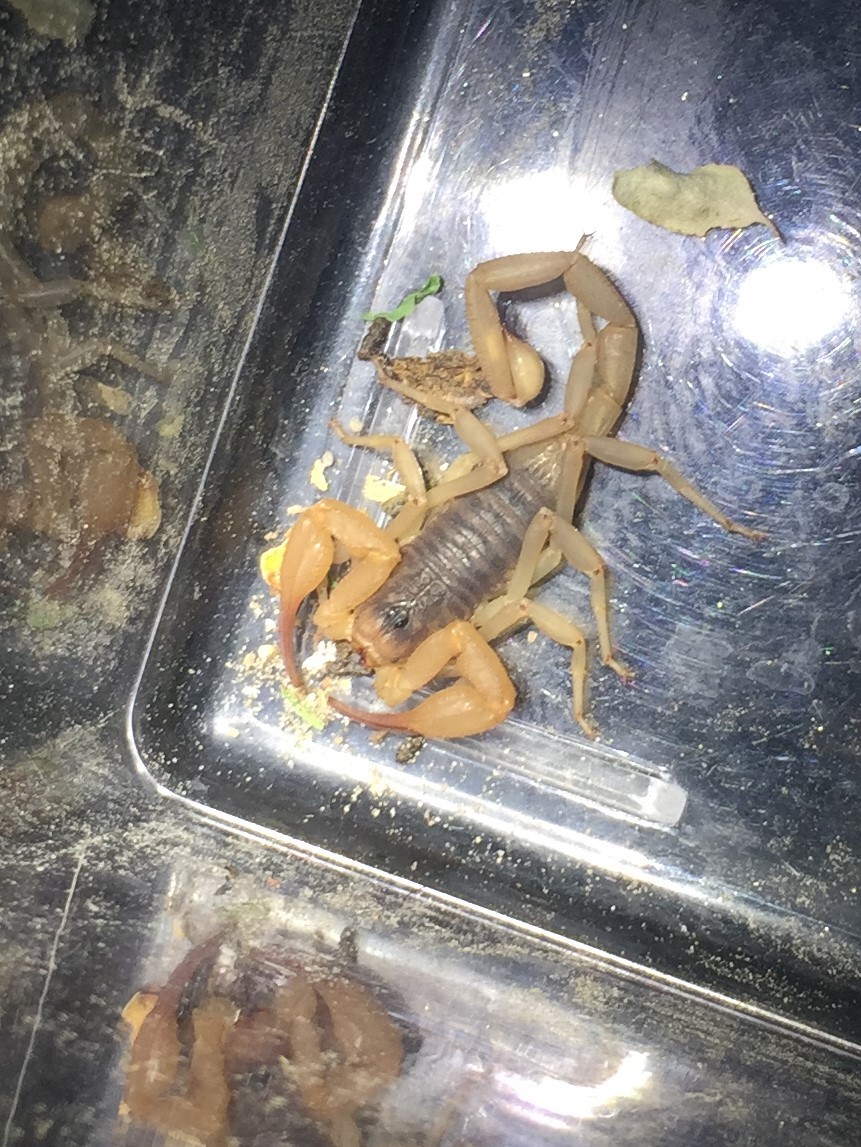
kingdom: Animalia
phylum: Arthropoda
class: Arachnida
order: Scorpiones
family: Vaejovidae
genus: Smeringurus
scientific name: Smeringurus vachoni
